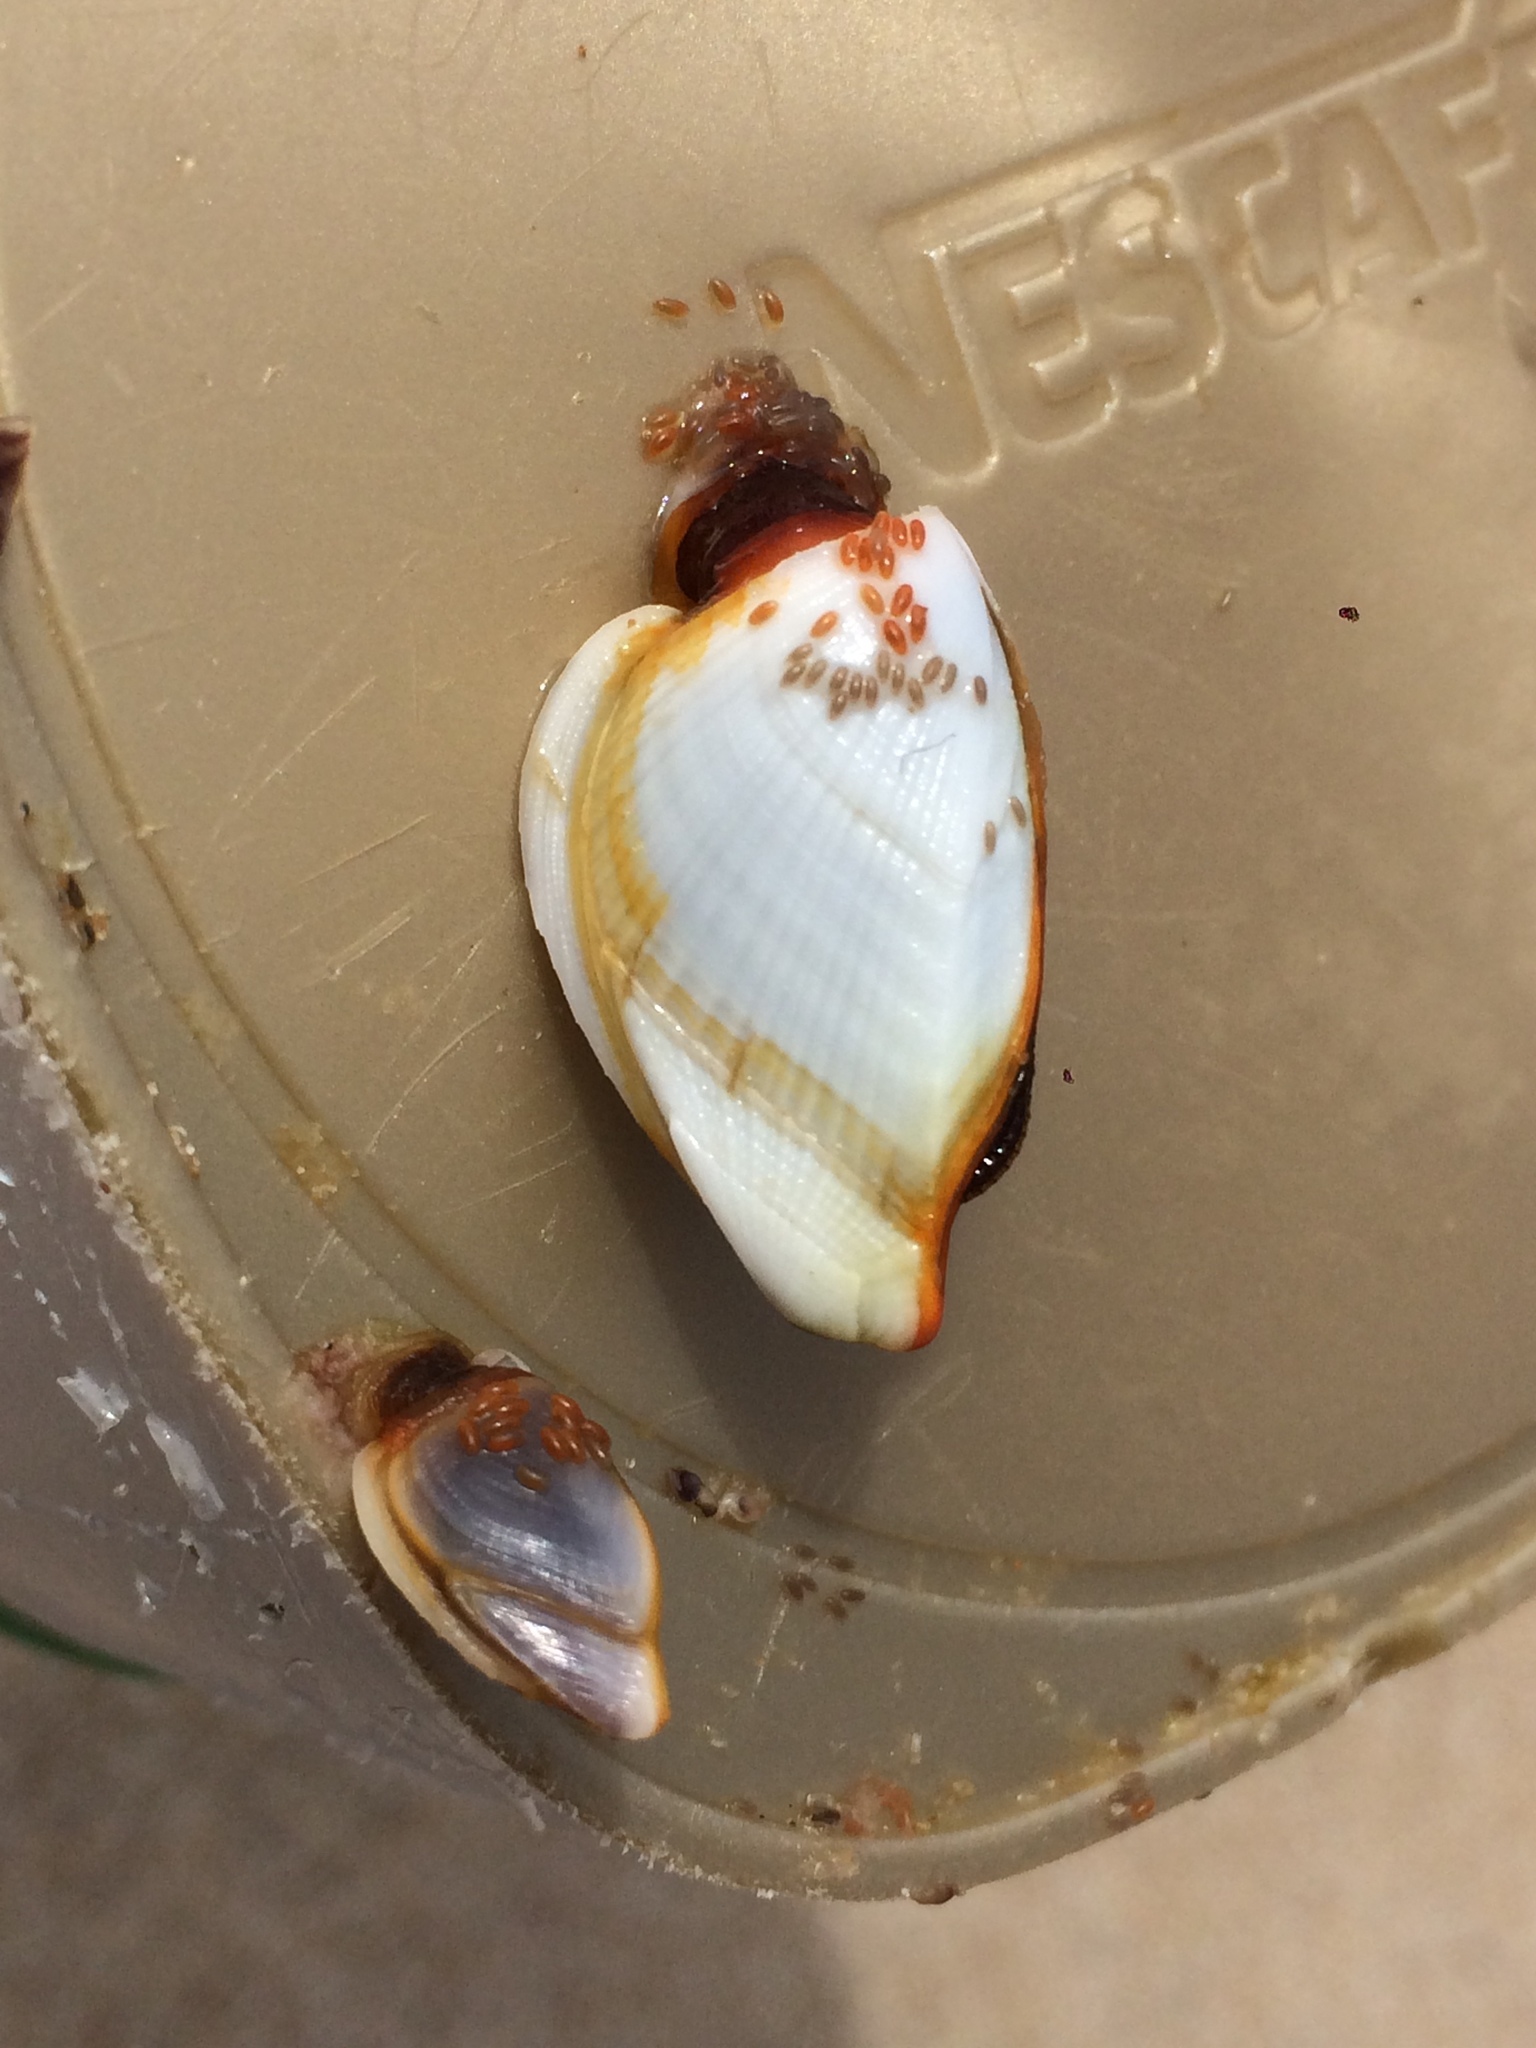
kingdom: Animalia
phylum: Arthropoda
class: Maxillopoda
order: Pedunculata
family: Lepadidae
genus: Lepas
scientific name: Lepas anserifera
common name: Goose barnacle
